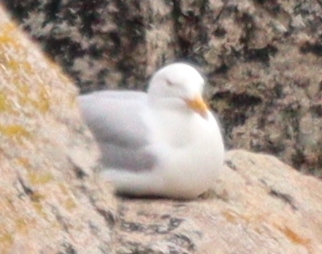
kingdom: Animalia
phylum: Chordata
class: Aves
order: Charadriiformes
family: Laridae
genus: Larus
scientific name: Larus argentatus
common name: Herring gull
